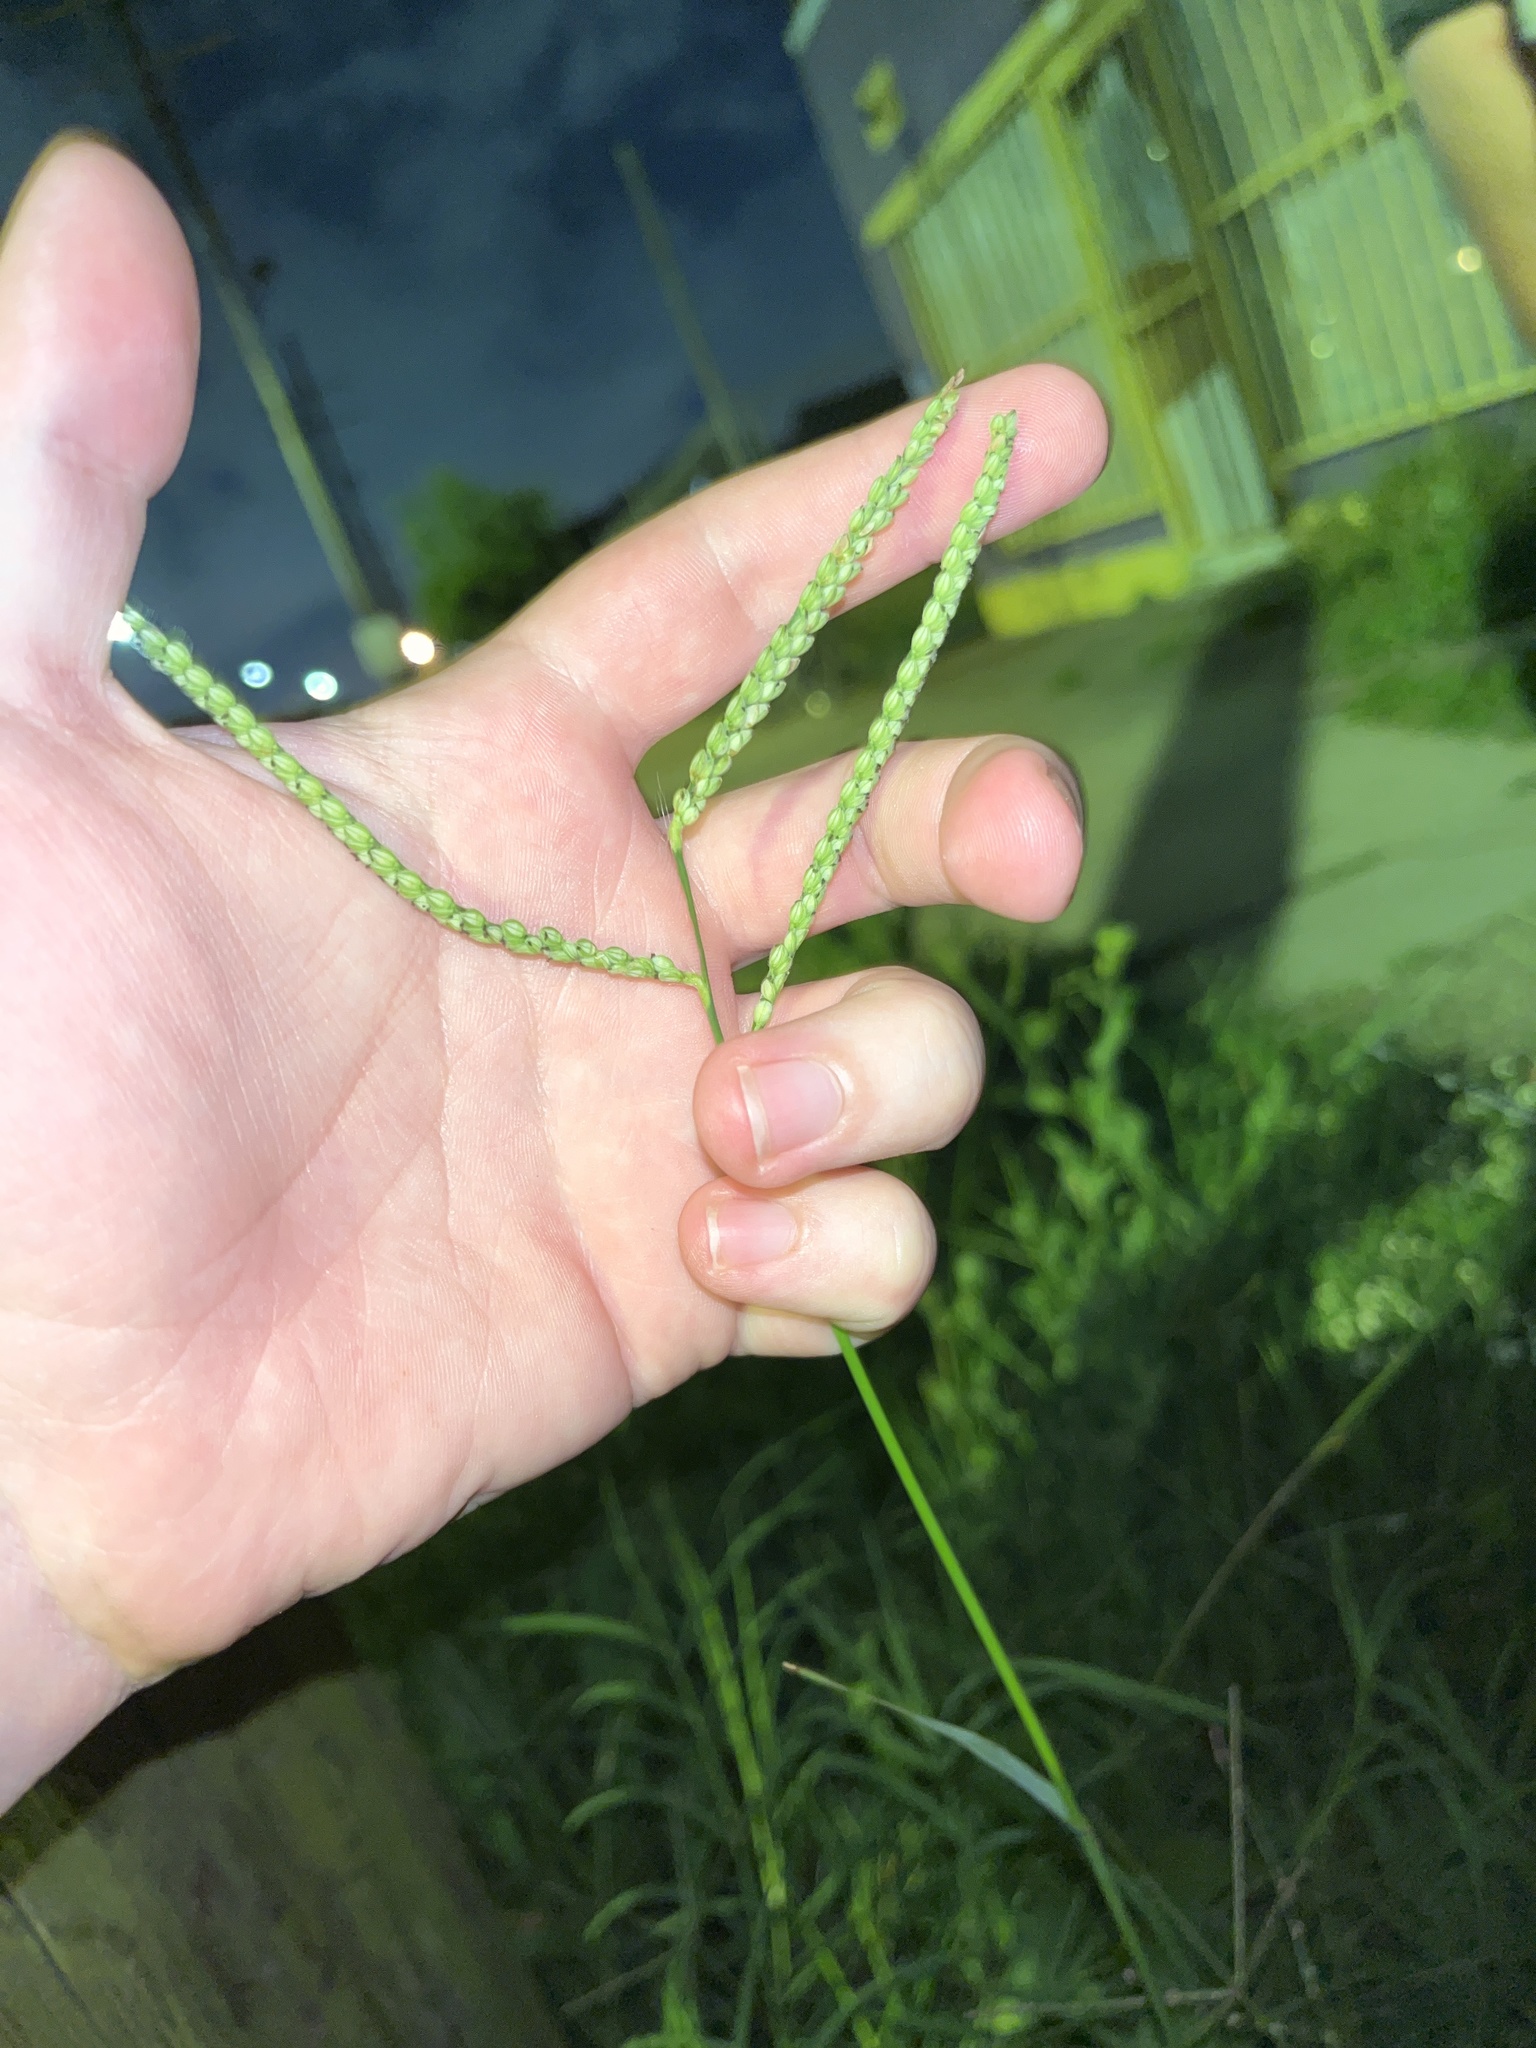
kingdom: Plantae
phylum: Tracheophyta
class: Liliopsida
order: Poales
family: Poaceae
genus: Paspalum
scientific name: Paspalum pubiflorum
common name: Hairy-seed paspalum
